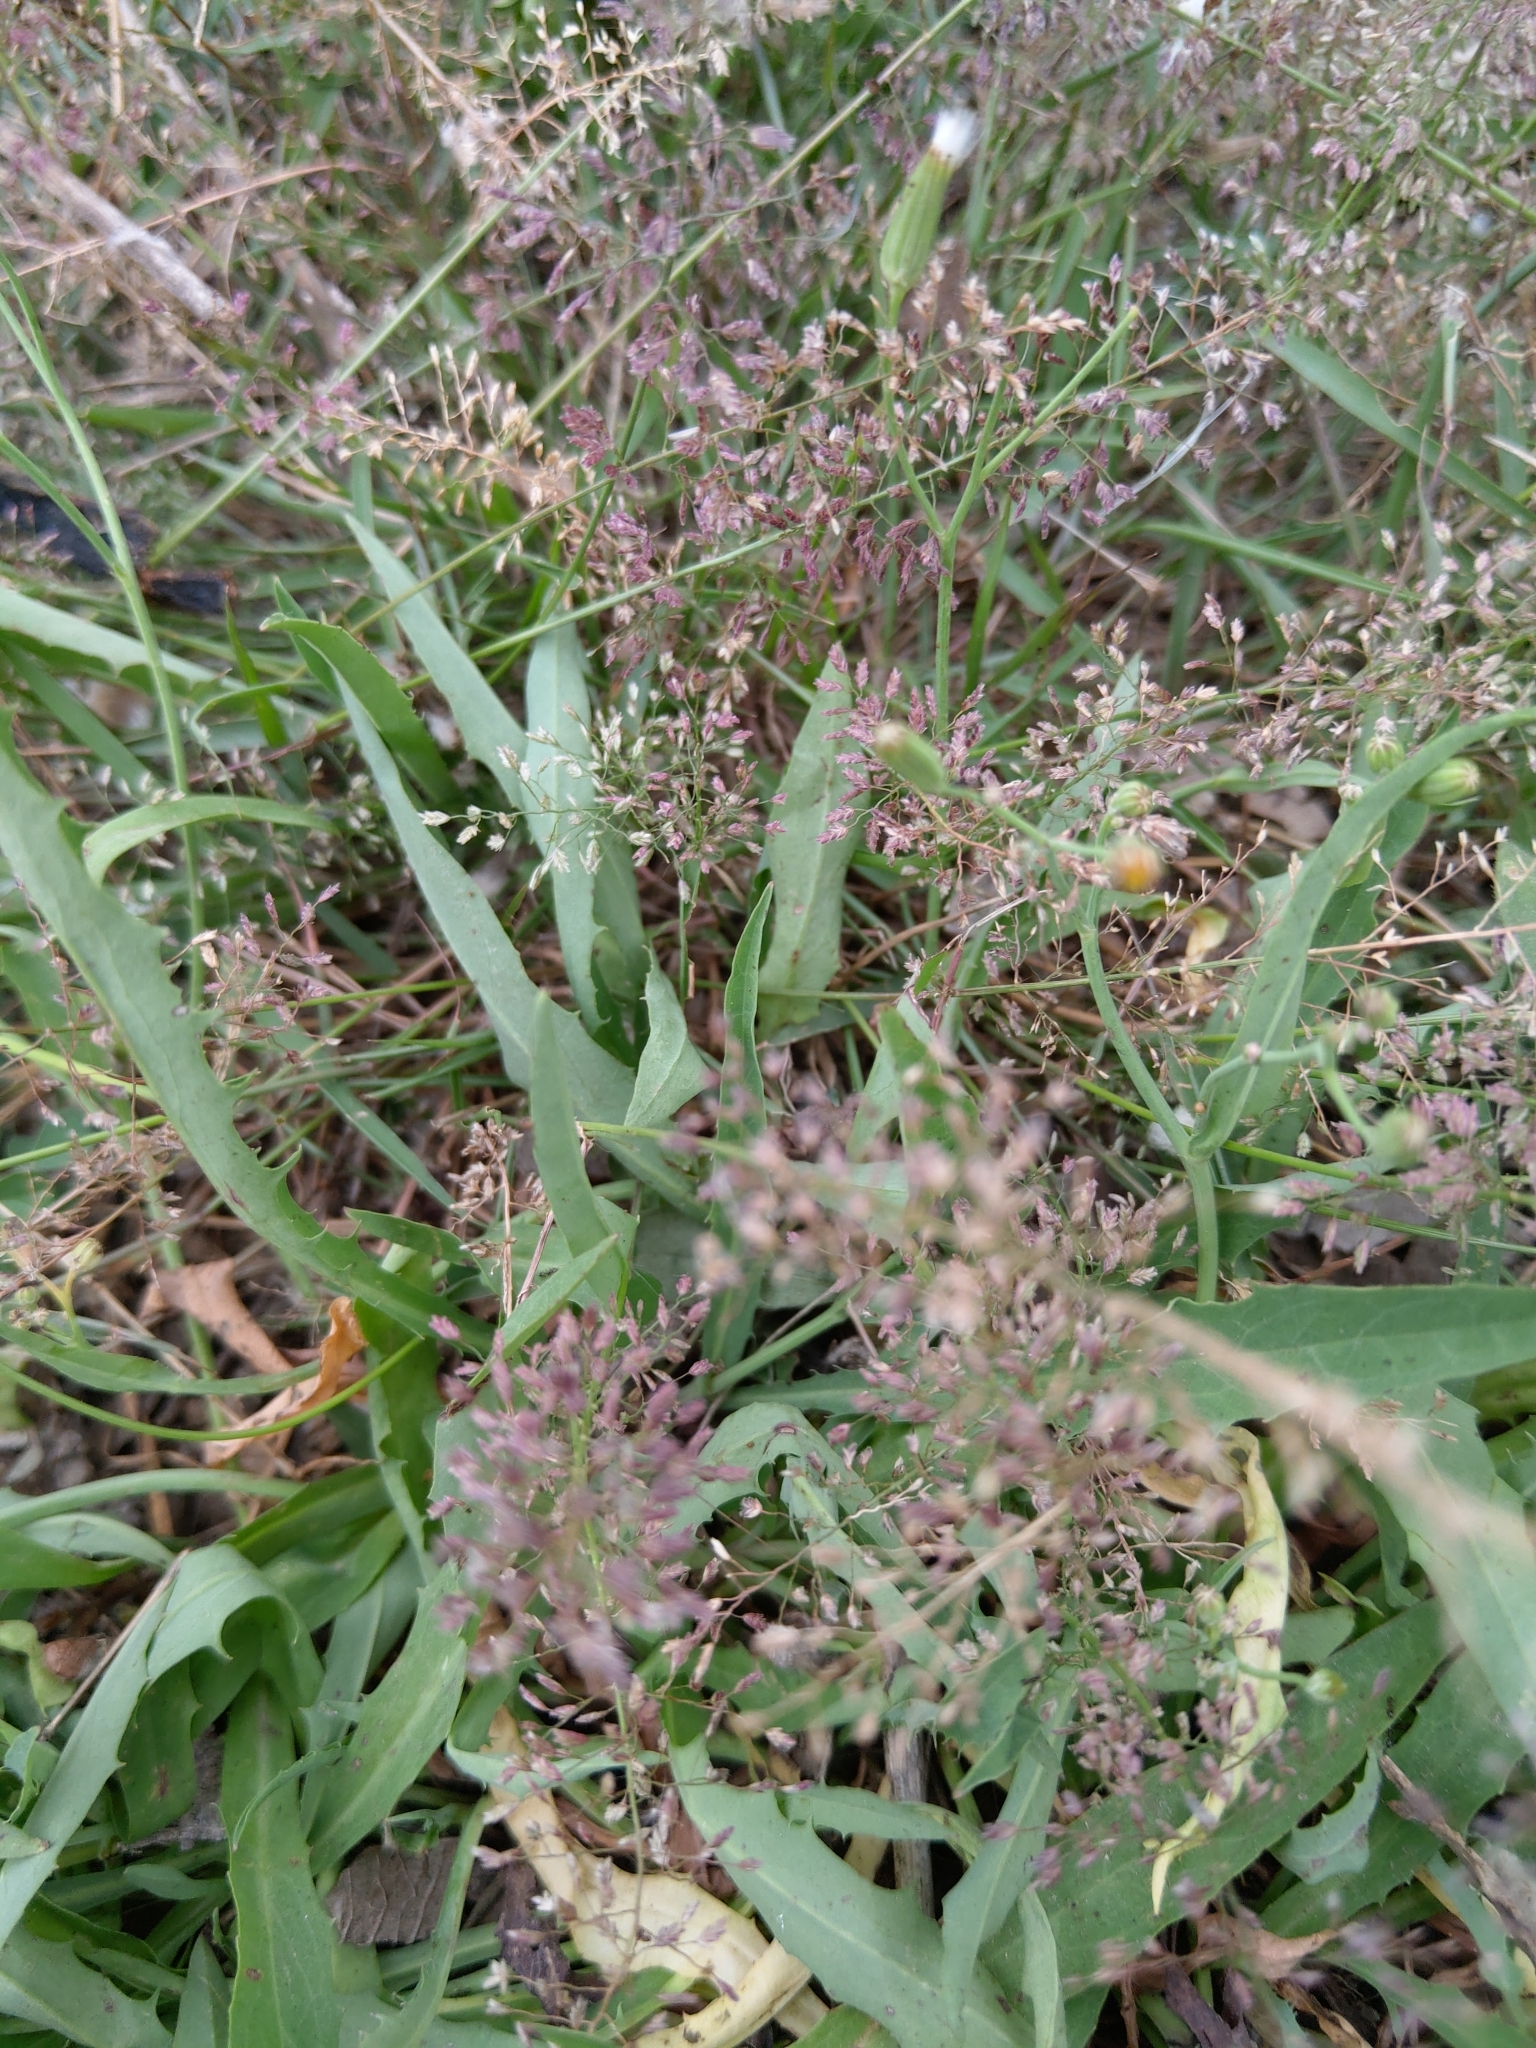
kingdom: Plantae
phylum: Tracheophyta
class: Liliopsida
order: Poales
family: Poaceae
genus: Eragrostis
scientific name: Eragrostis tenella
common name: Japanese lovegrass
